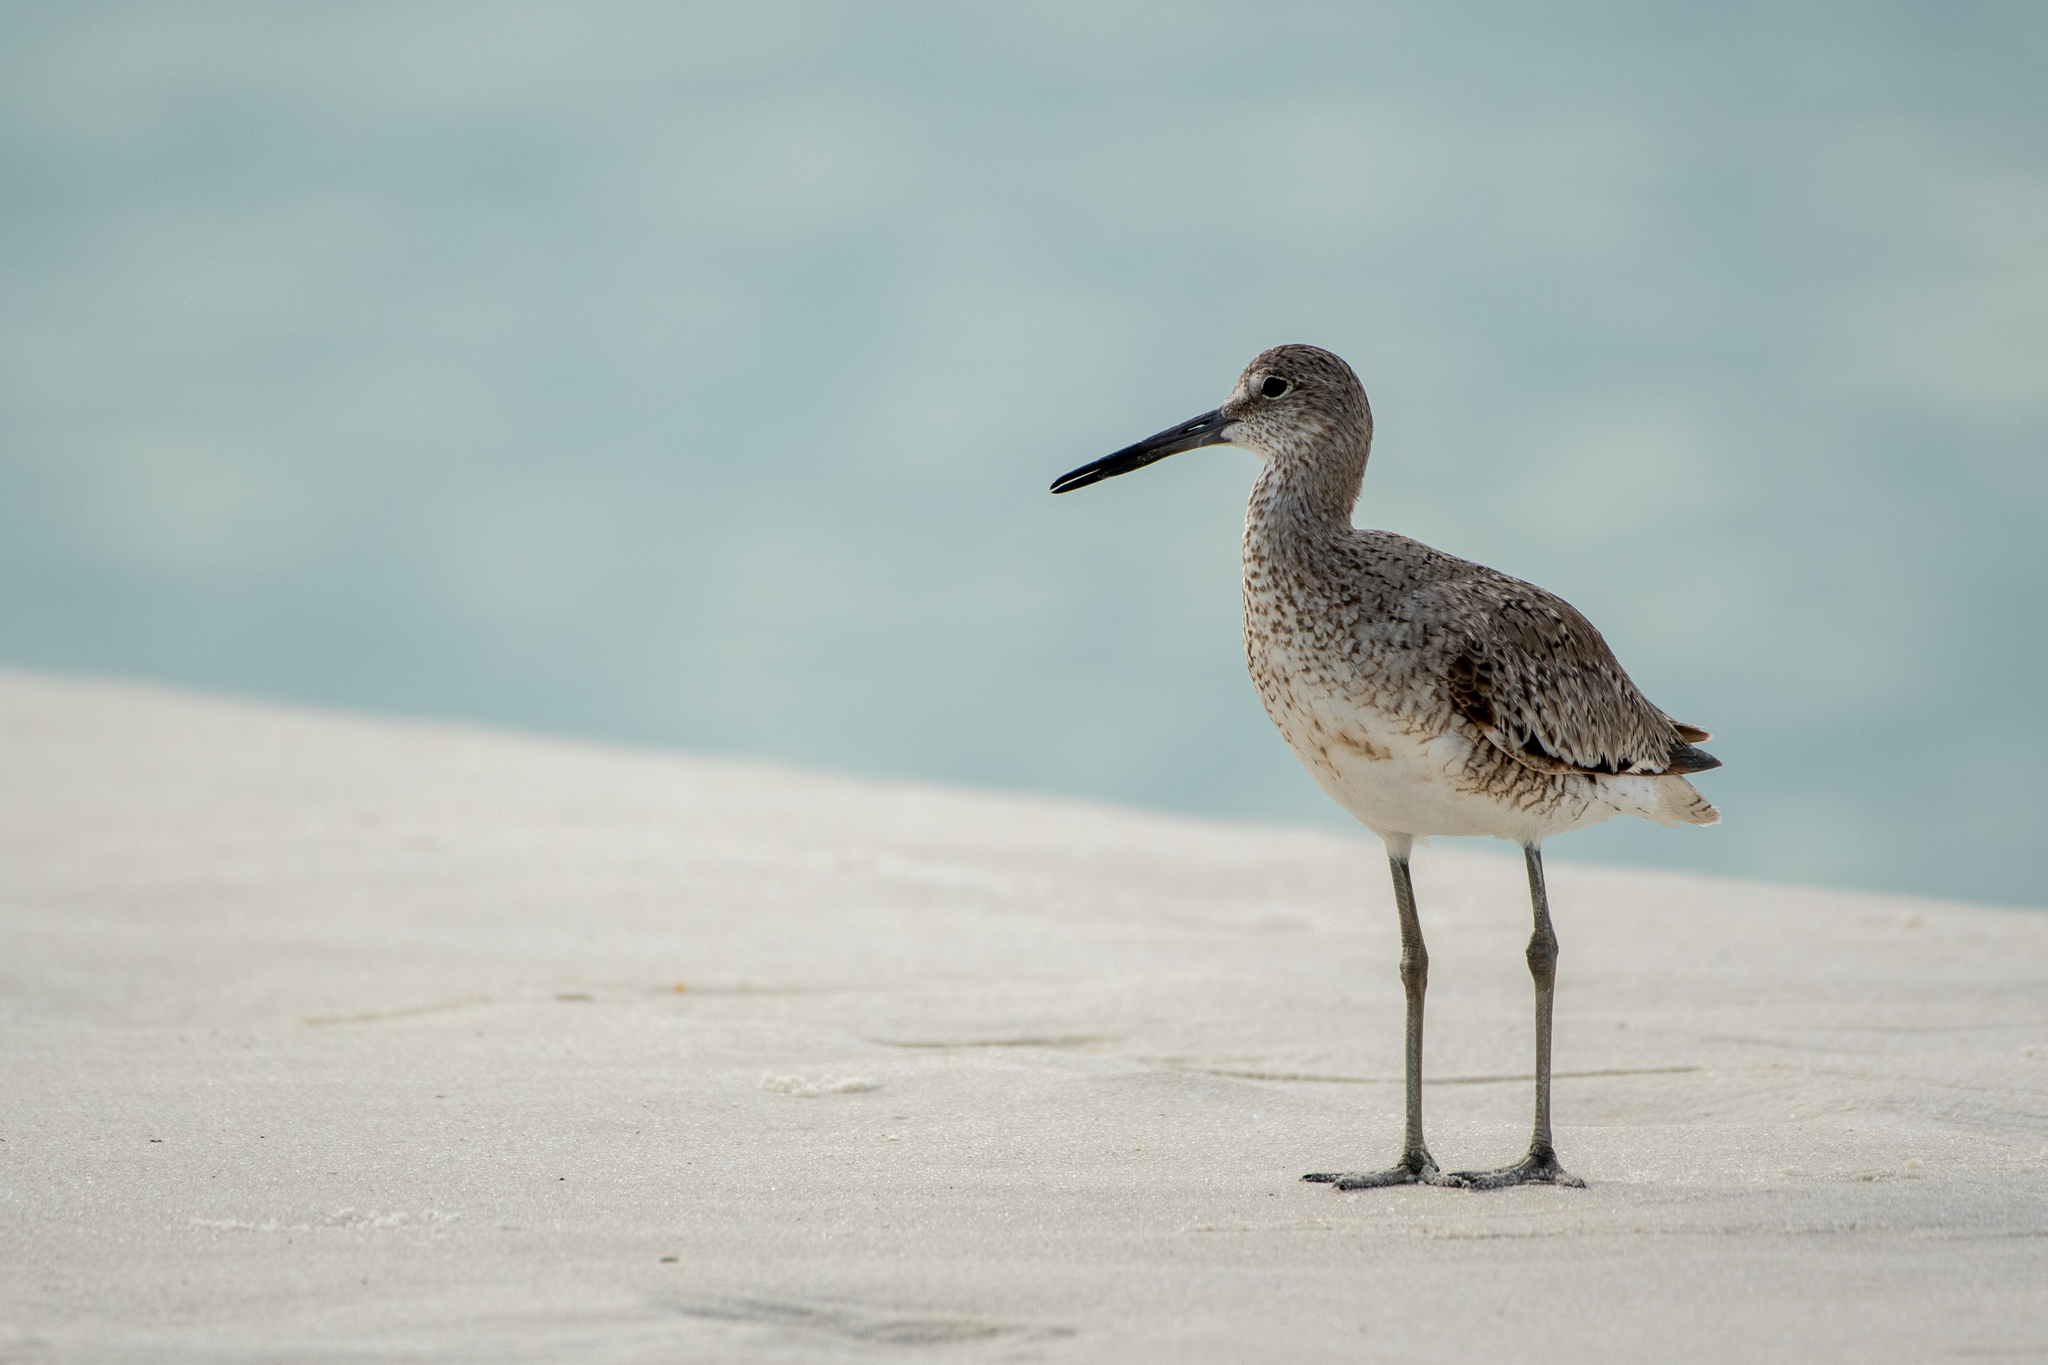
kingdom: Animalia
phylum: Chordata
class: Aves
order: Charadriiformes
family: Scolopacidae
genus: Tringa
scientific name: Tringa semipalmata
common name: Willet
